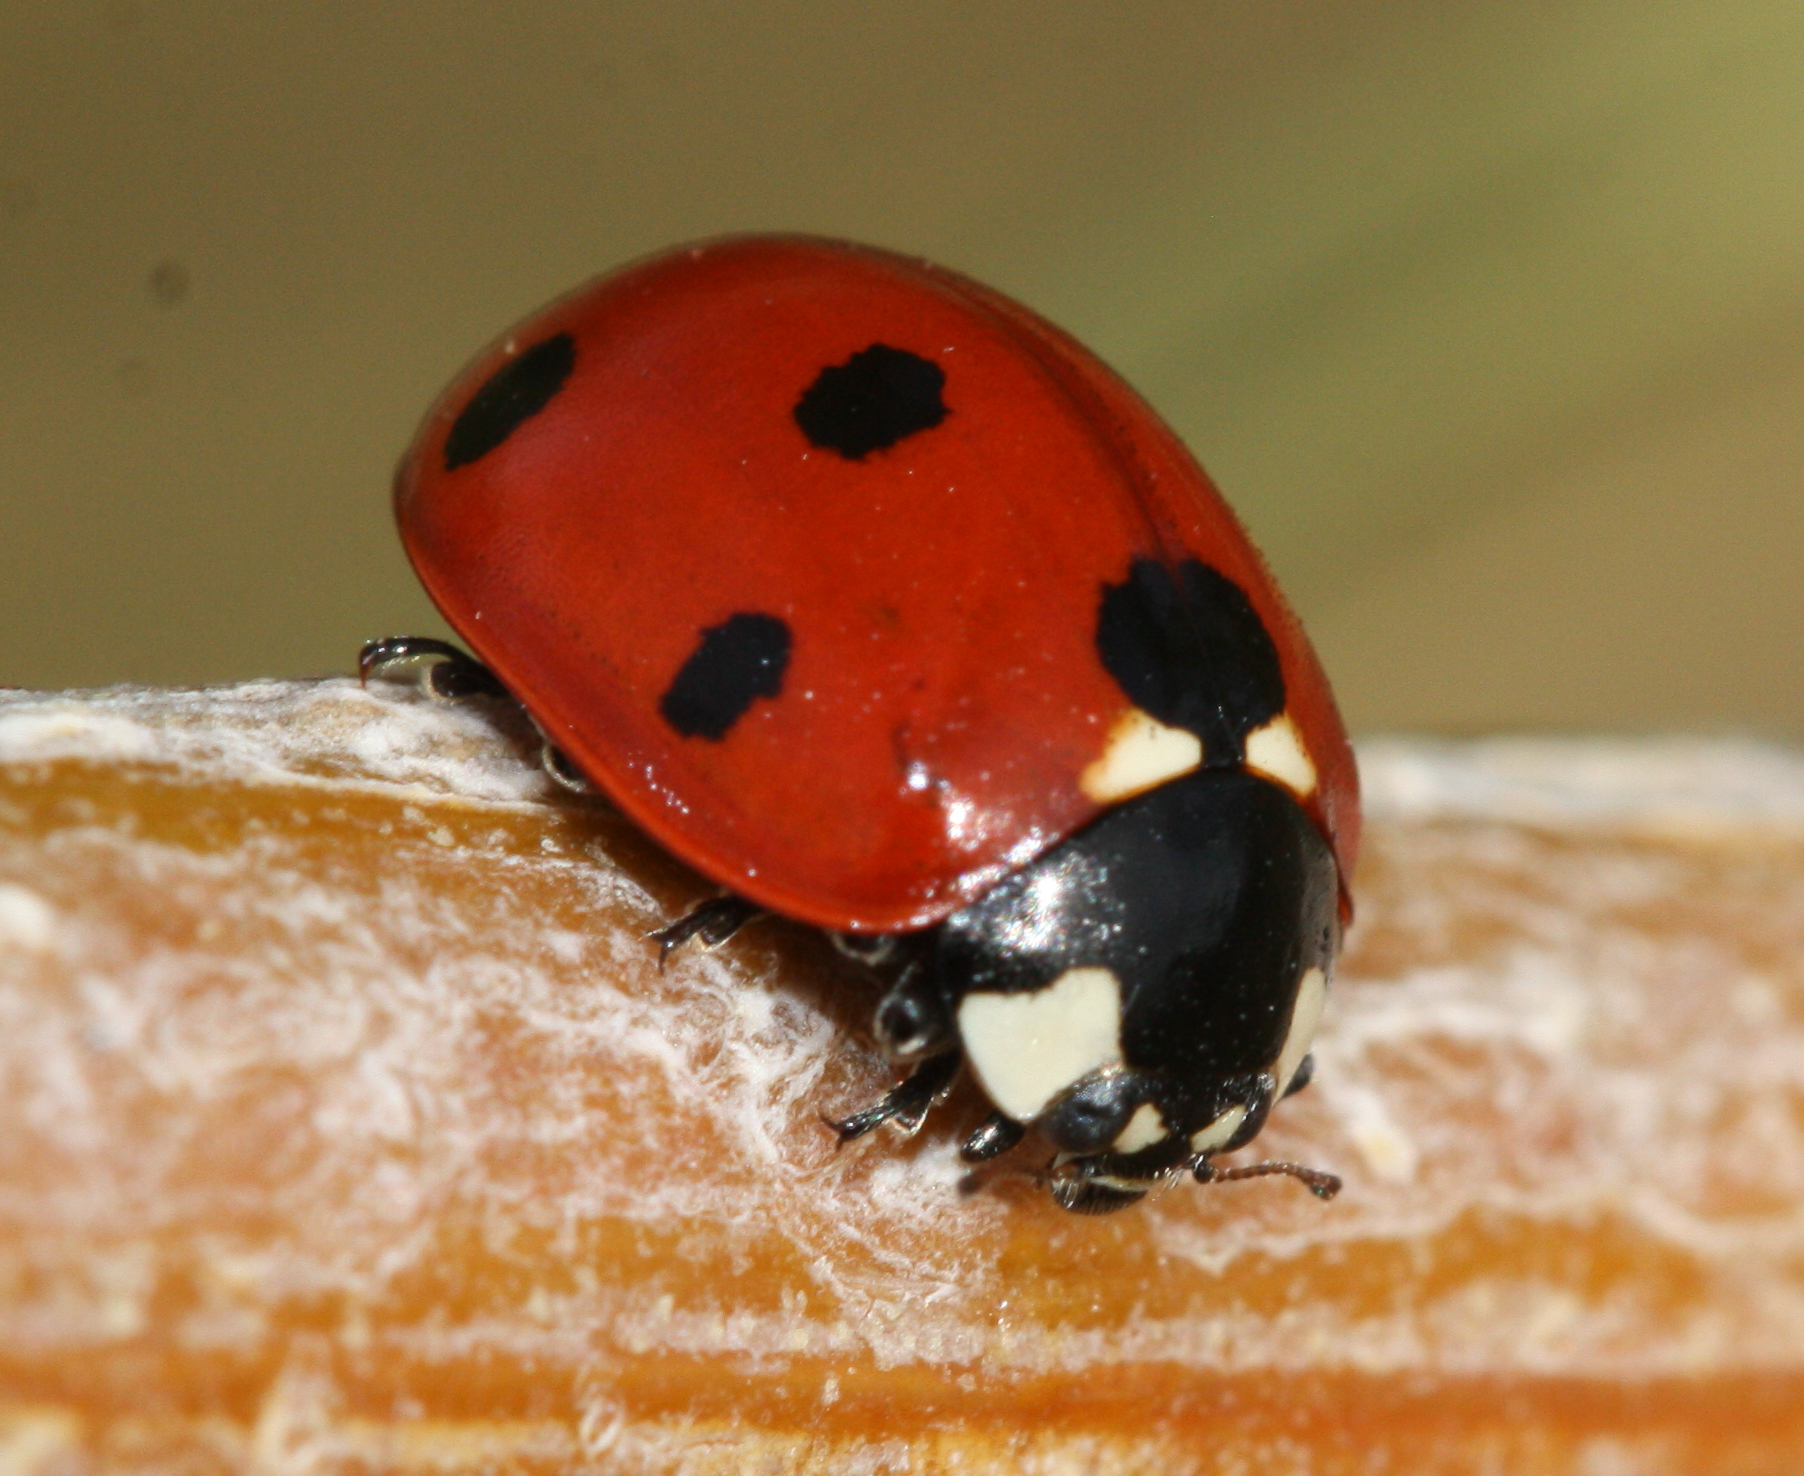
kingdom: Animalia
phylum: Arthropoda
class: Insecta
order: Coleoptera
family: Coccinellidae
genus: Coccinella
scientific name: Coccinella septempunctata
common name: Sevenspotted lady beetle
